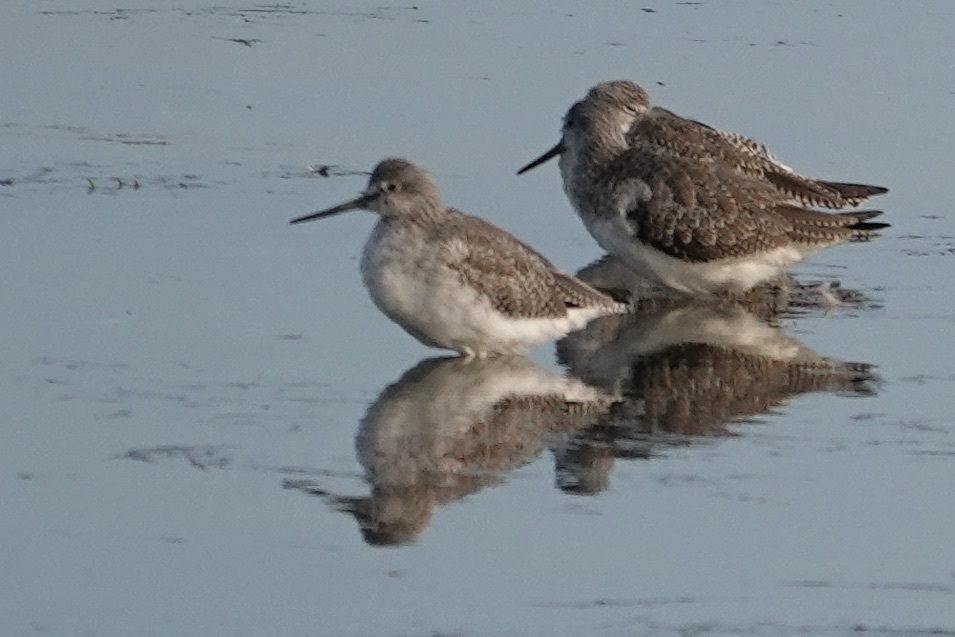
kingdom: Animalia
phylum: Chordata
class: Aves
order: Charadriiformes
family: Scolopacidae
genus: Tringa
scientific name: Tringa melanoleuca
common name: Greater yellowlegs
